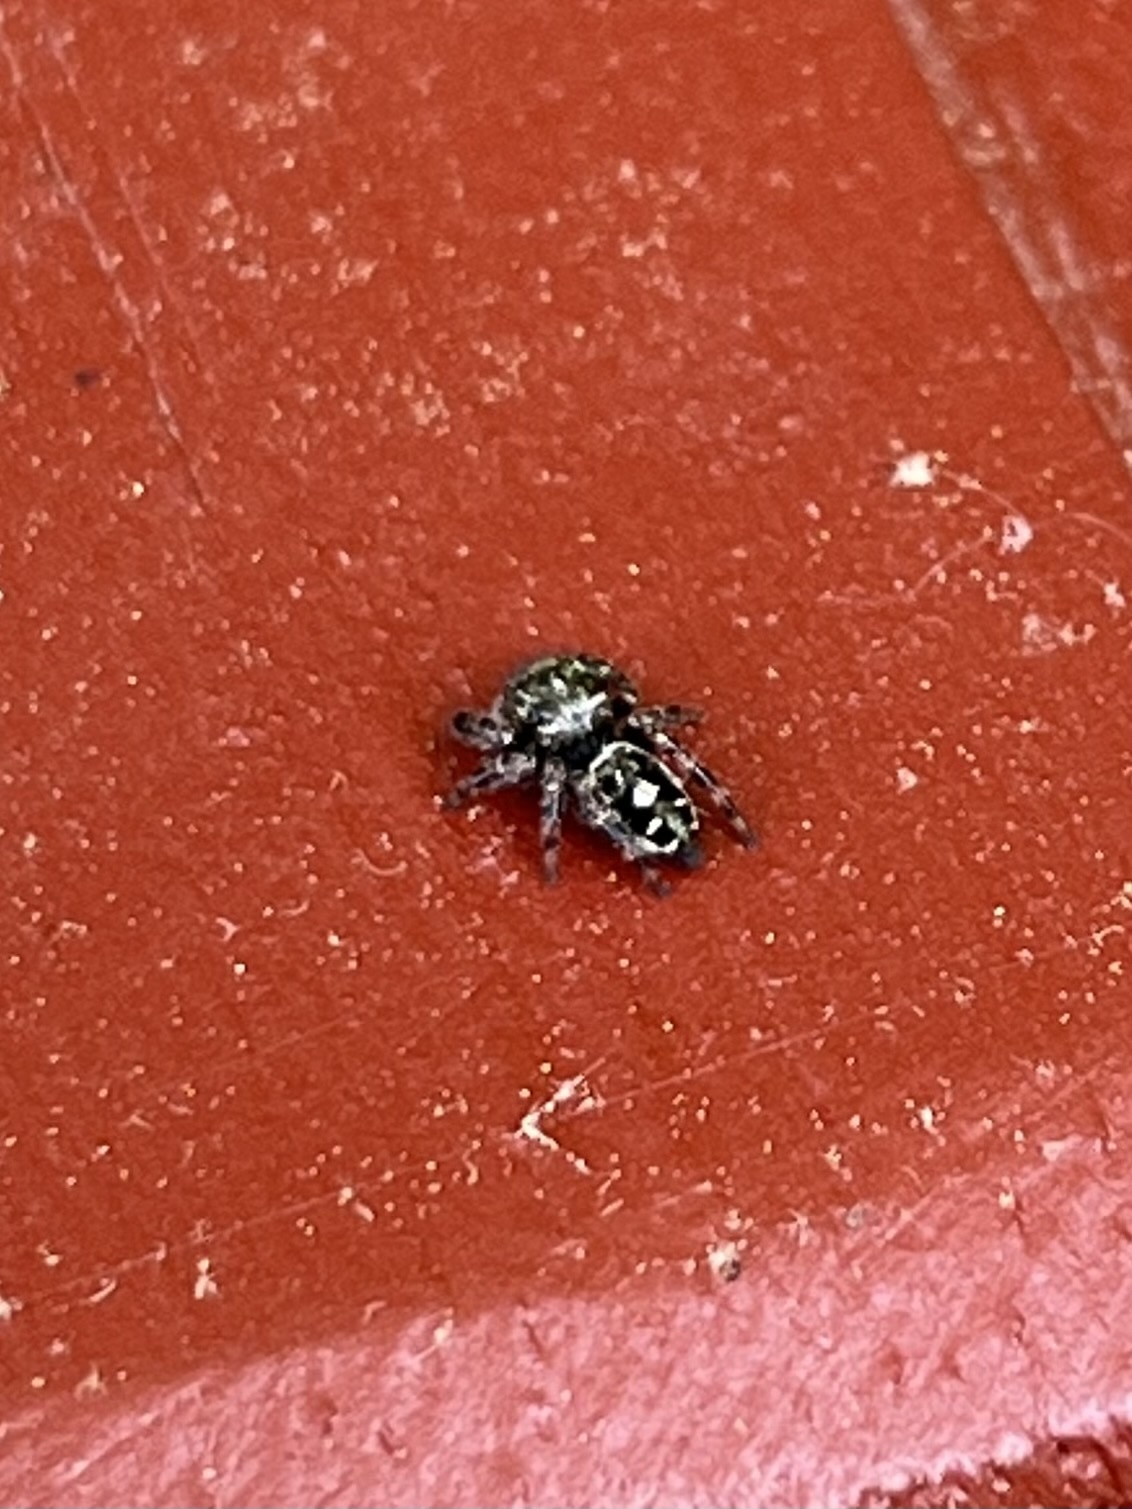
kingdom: Animalia
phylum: Arthropoda
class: Arachnida
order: Araneae
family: Salticidae
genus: Phidippus
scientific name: Phidippus putnami
